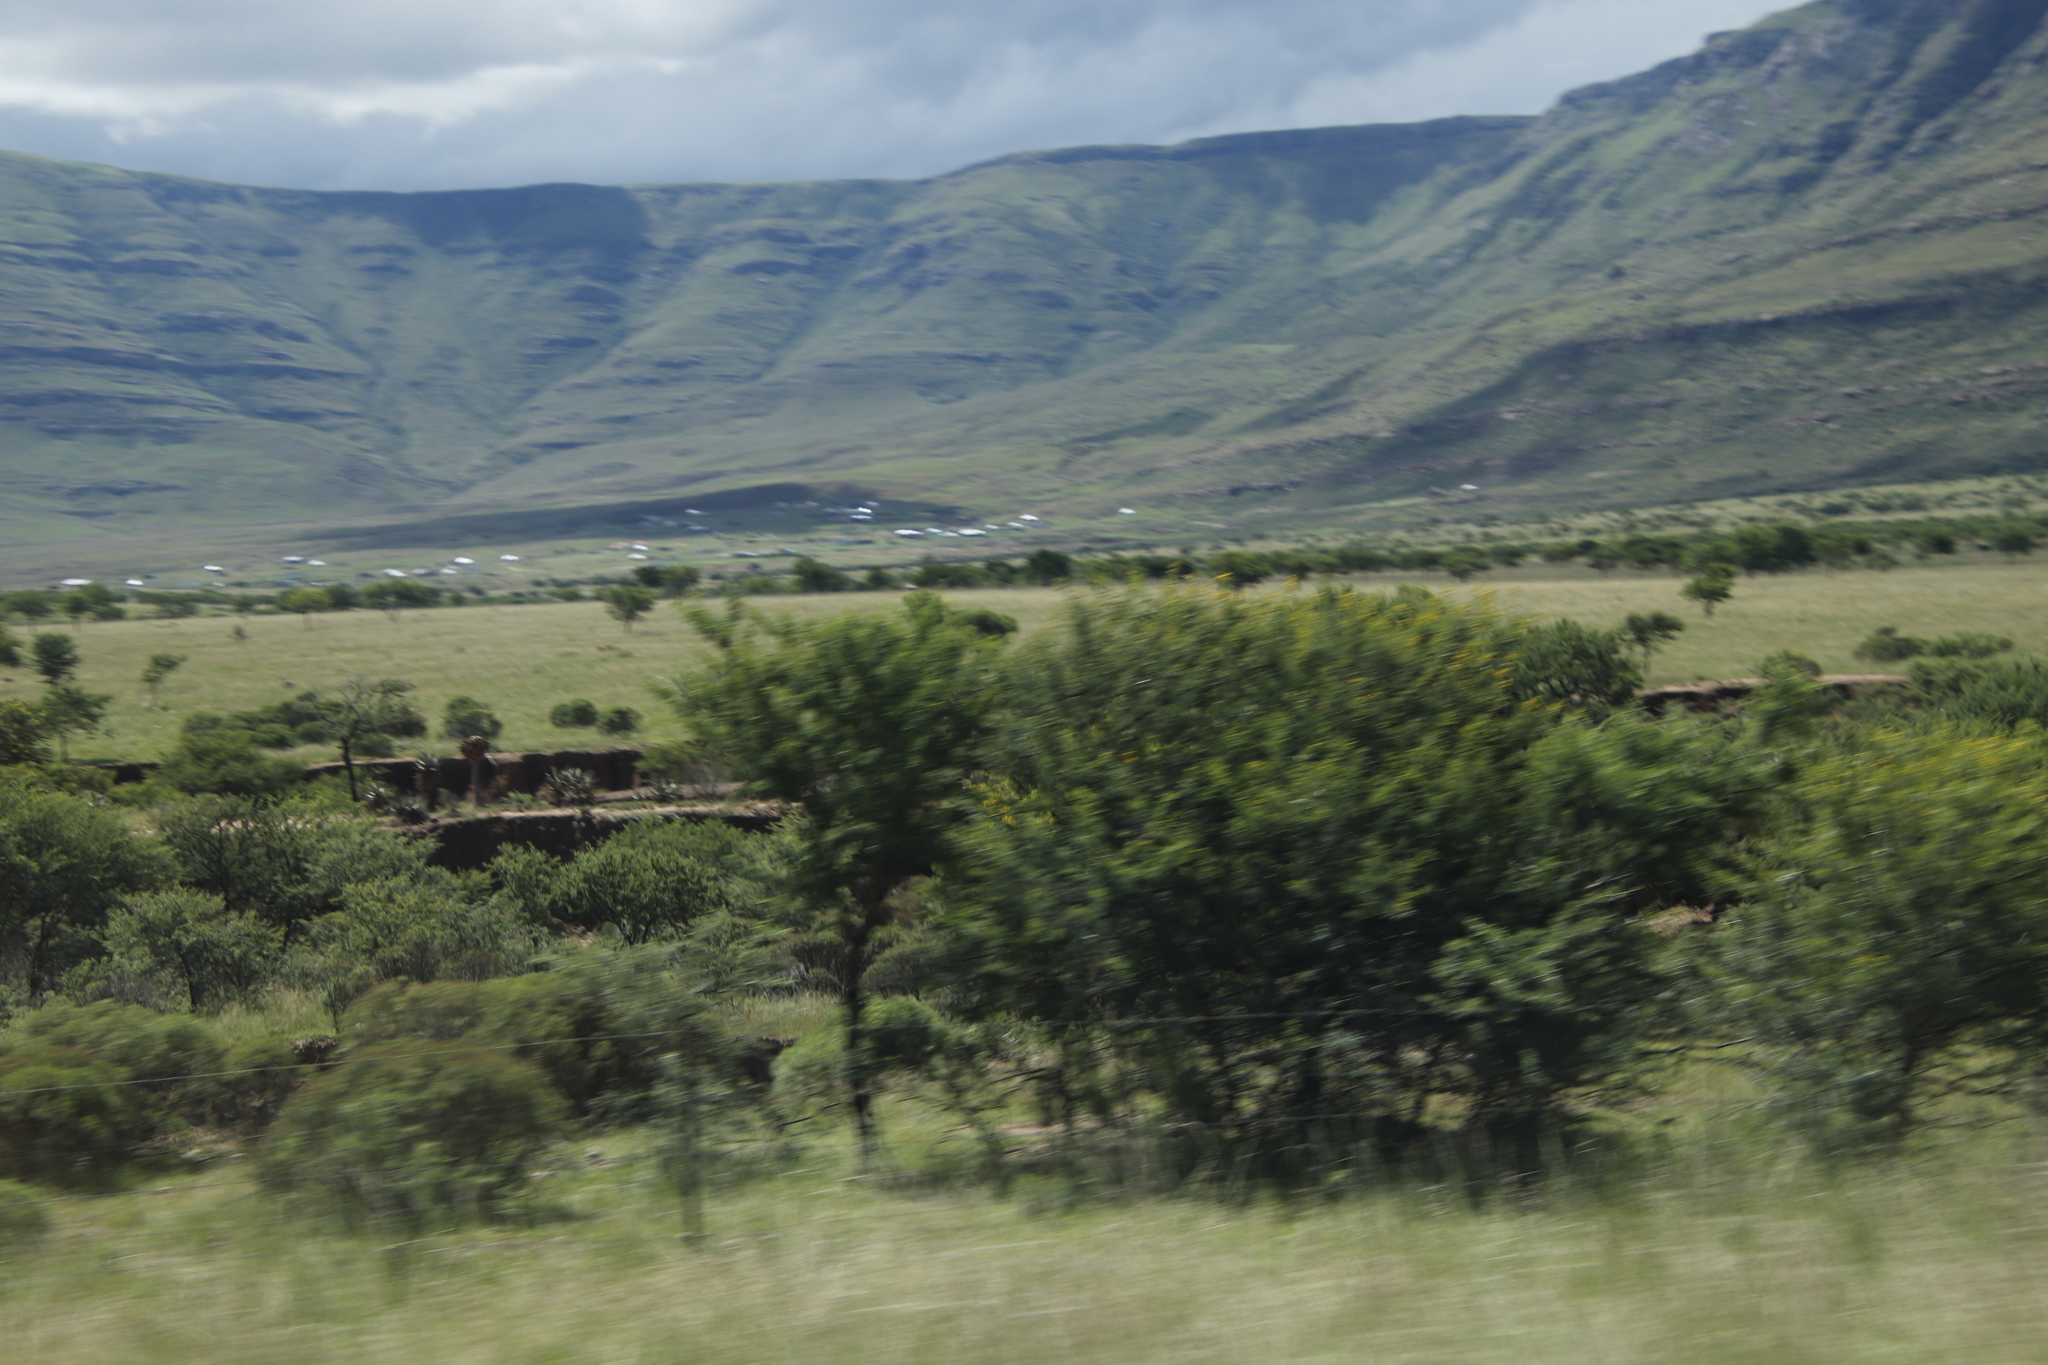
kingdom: Plantae
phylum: Tracheophyta
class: Magnoliopsida
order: Fabales
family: Fabaceae
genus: Vachellia
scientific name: Vachellia karroo
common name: Sweet thorn
